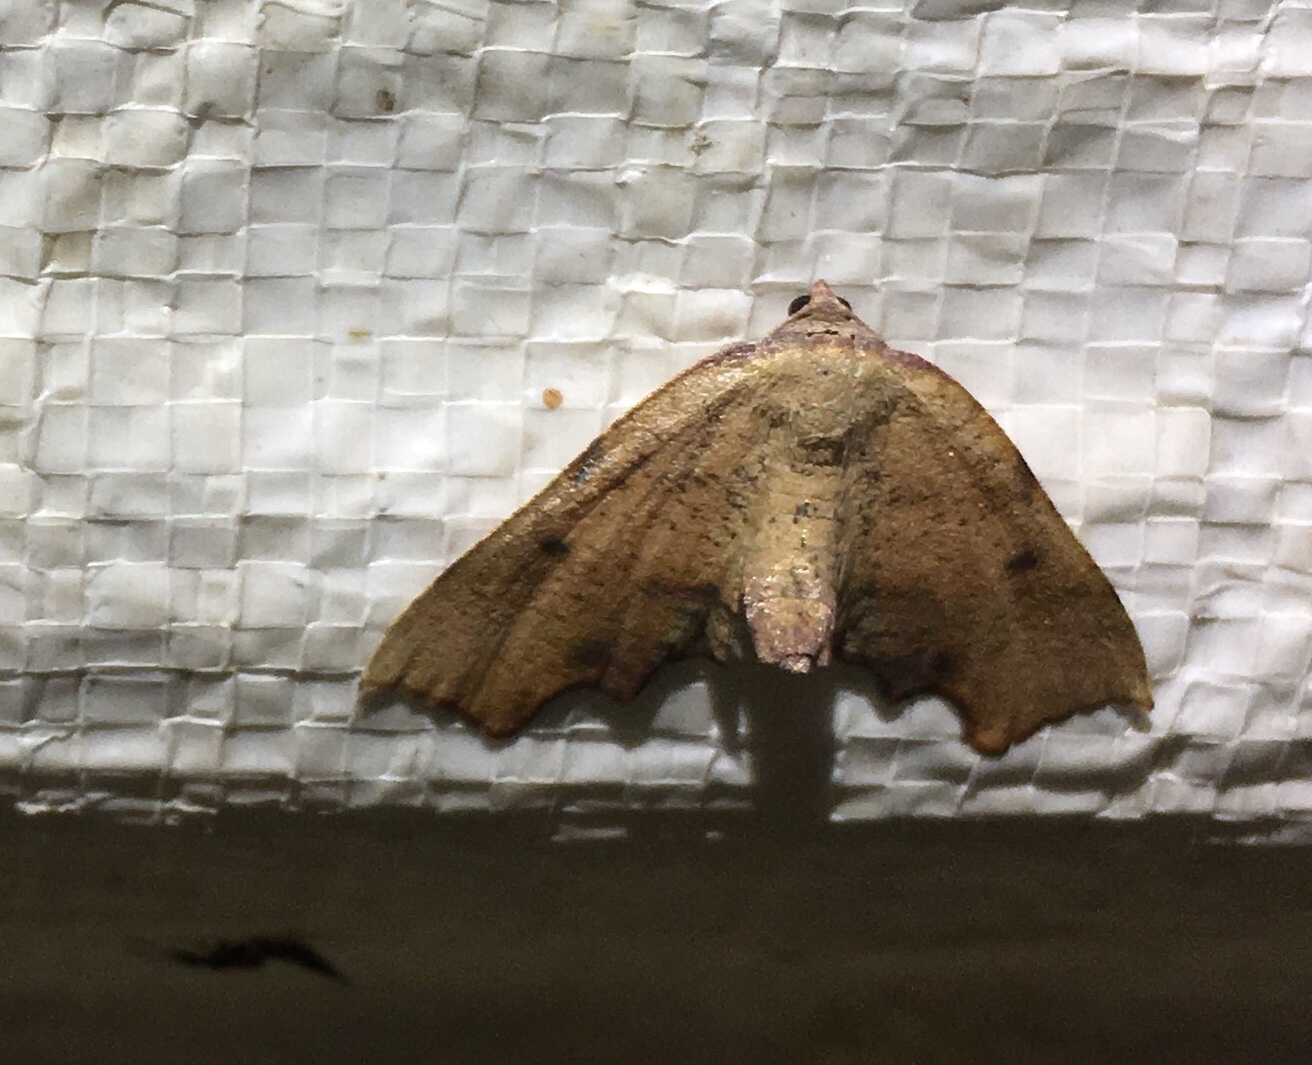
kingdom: Animalia
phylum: Arthropoda
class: Insecta
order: Lepidoptera
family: Geometridae
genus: Plagodis
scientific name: Plagodis fervidaria
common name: Fervid plagodis
